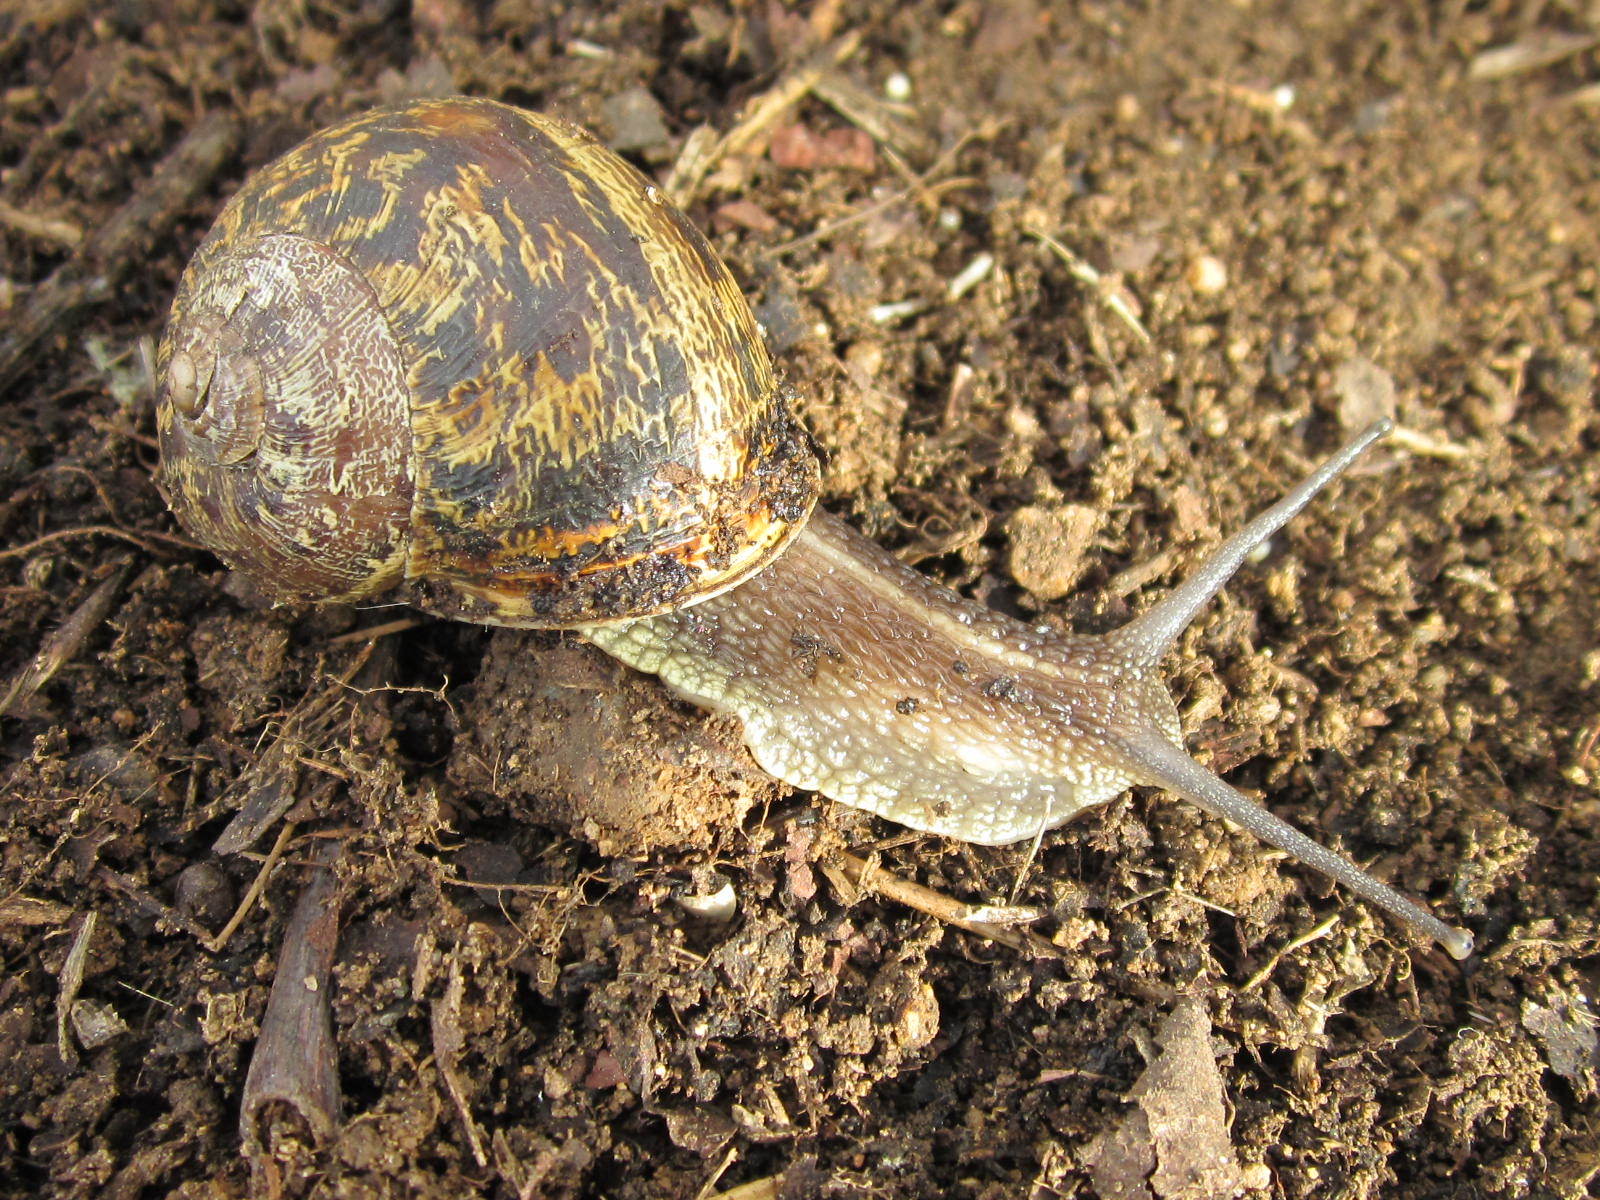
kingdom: Animalia
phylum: Mollusca
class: Gastropoda
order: Stylommatophora
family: Helicidae
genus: Cornu
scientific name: Cornu aspersum
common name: Brown garden snail
